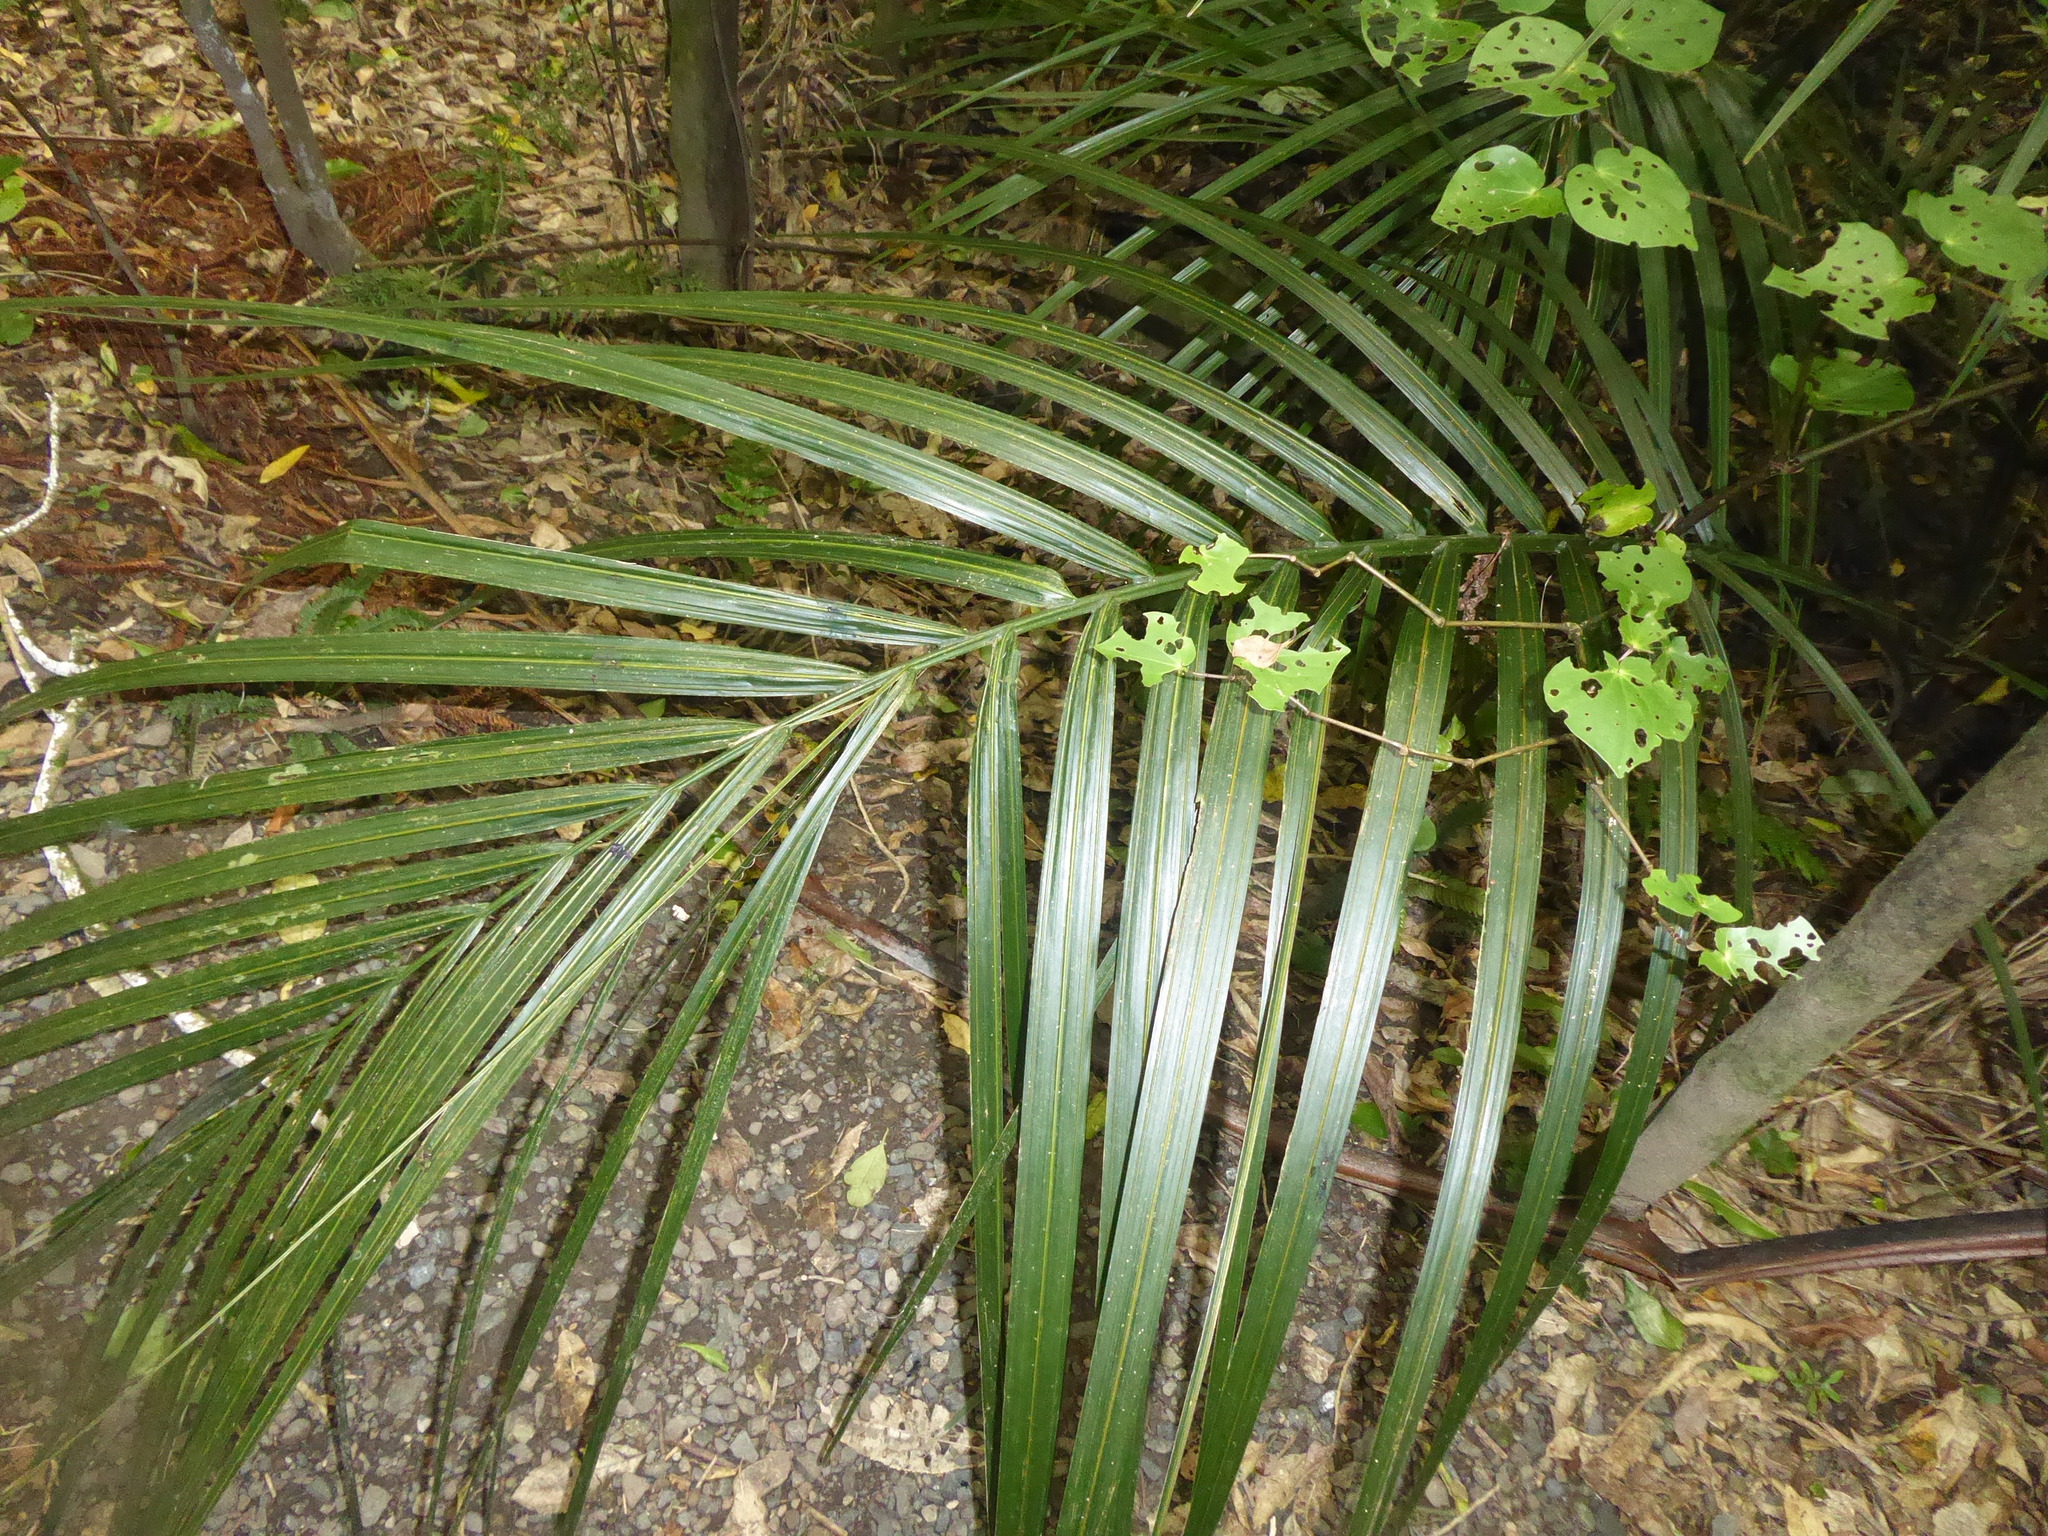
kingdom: Plantae
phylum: Tracheophyta
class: Liliopsida
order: Arecales
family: Arecaceae
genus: Rhopalostylis
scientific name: Rhopalostylis sapida
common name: Feather-duster palm
